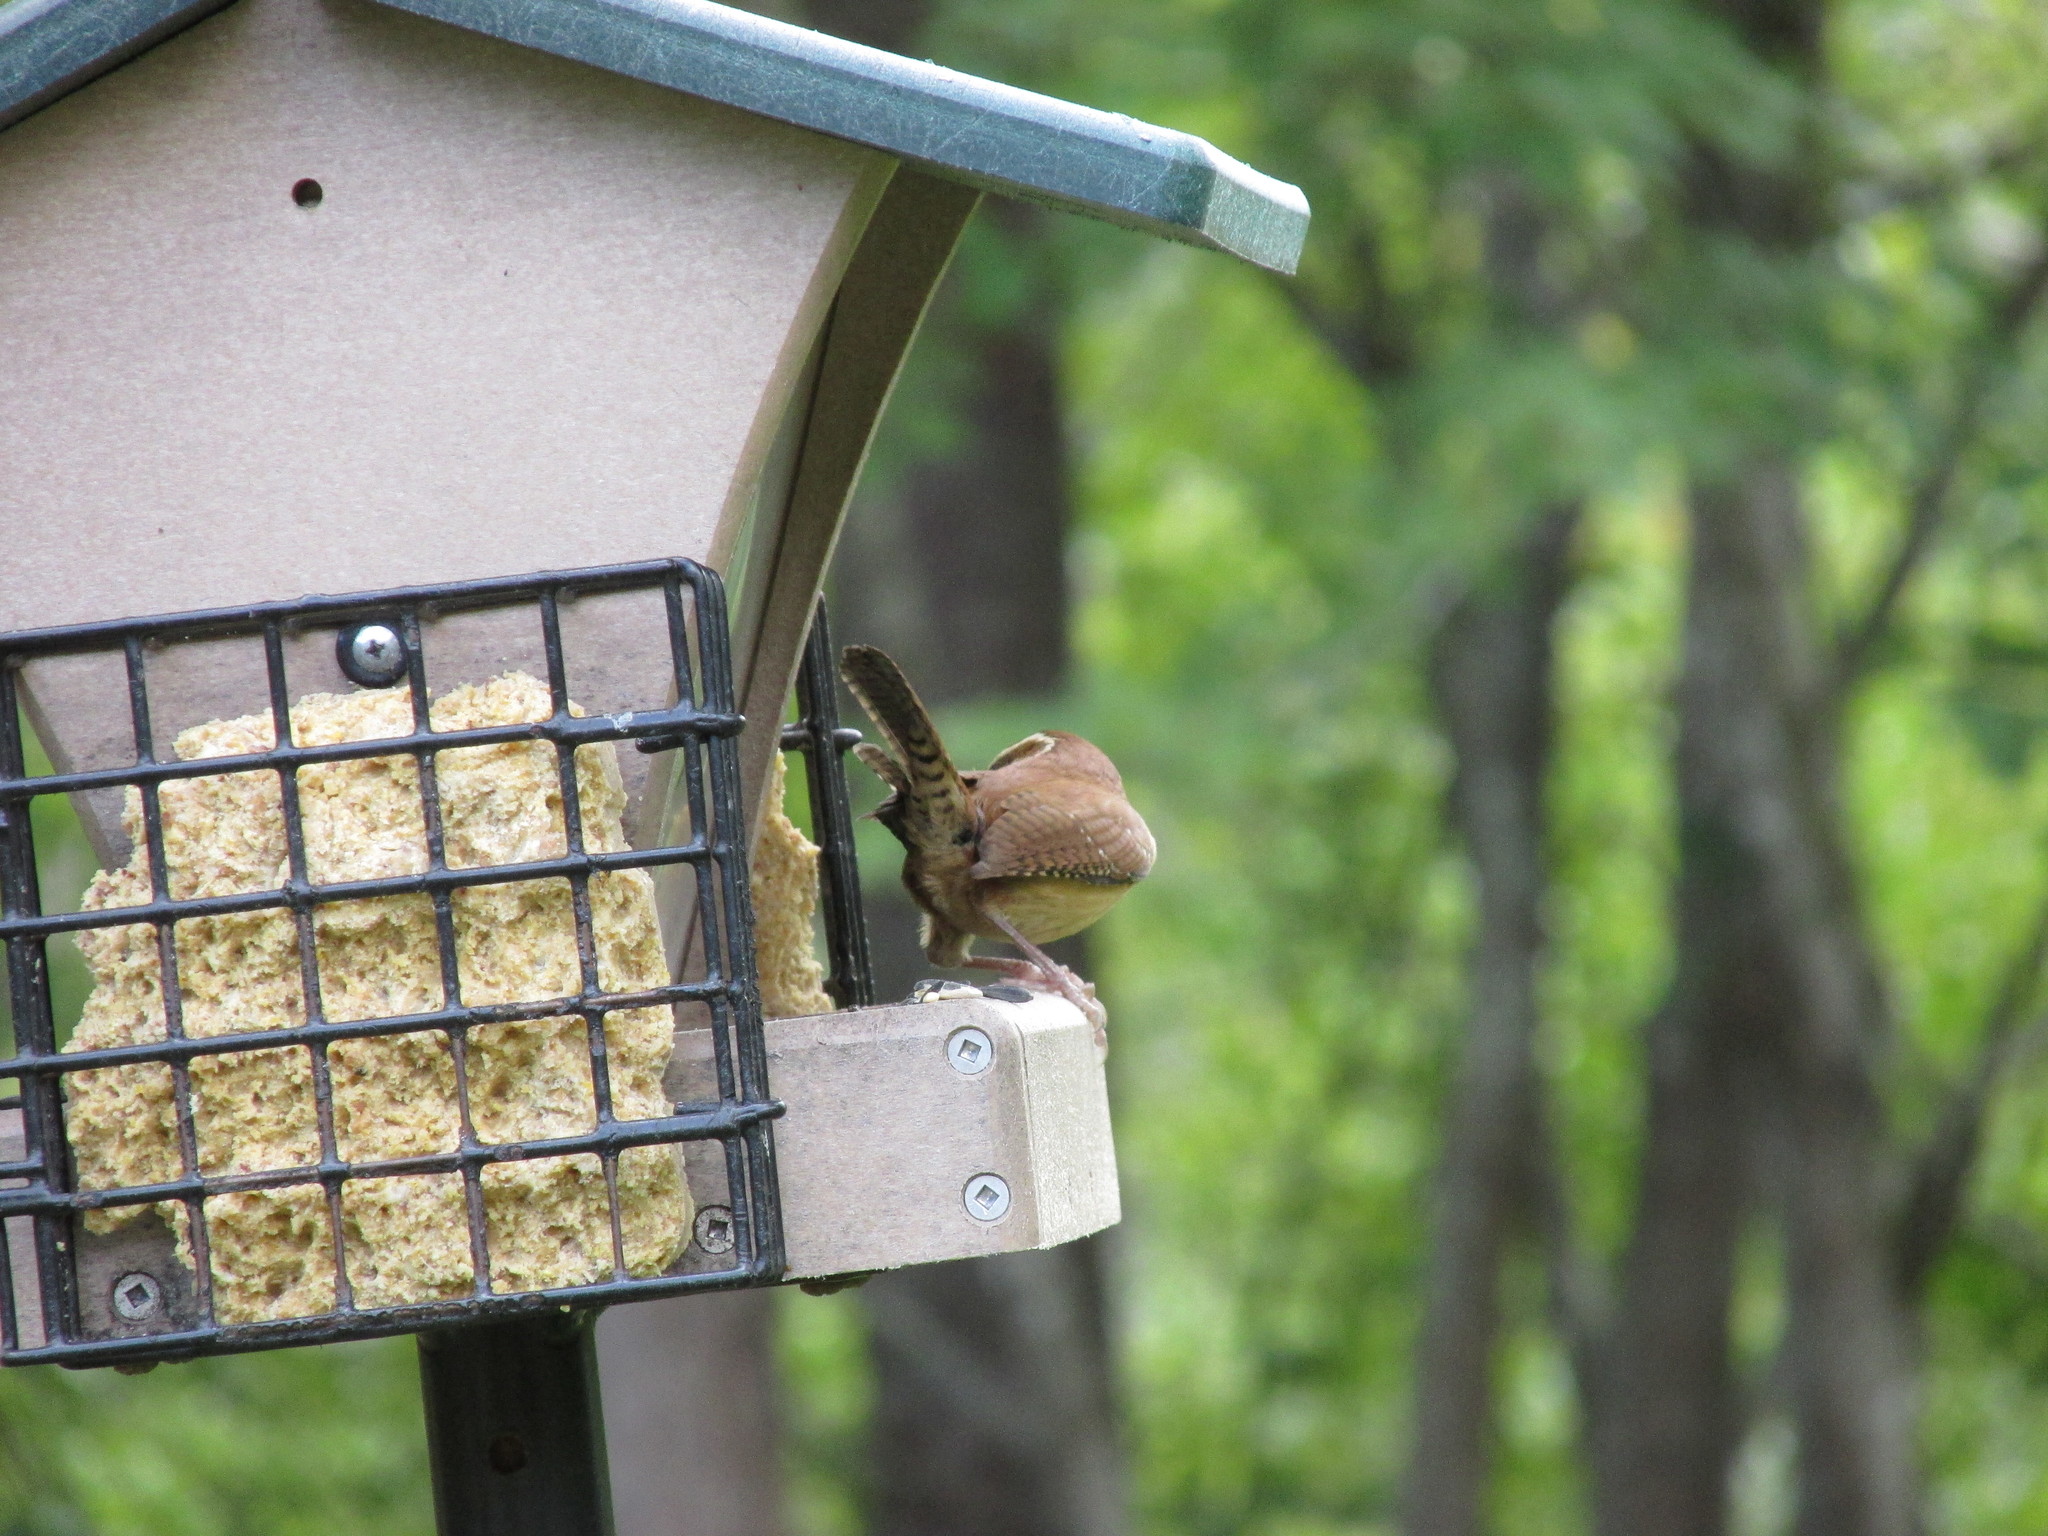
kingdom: Animalia
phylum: Chordata
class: Aves
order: Passeriformes
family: Troglodytidae
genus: Thryothorus
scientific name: Thryothorus ludovicianus
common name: Carolina wren
